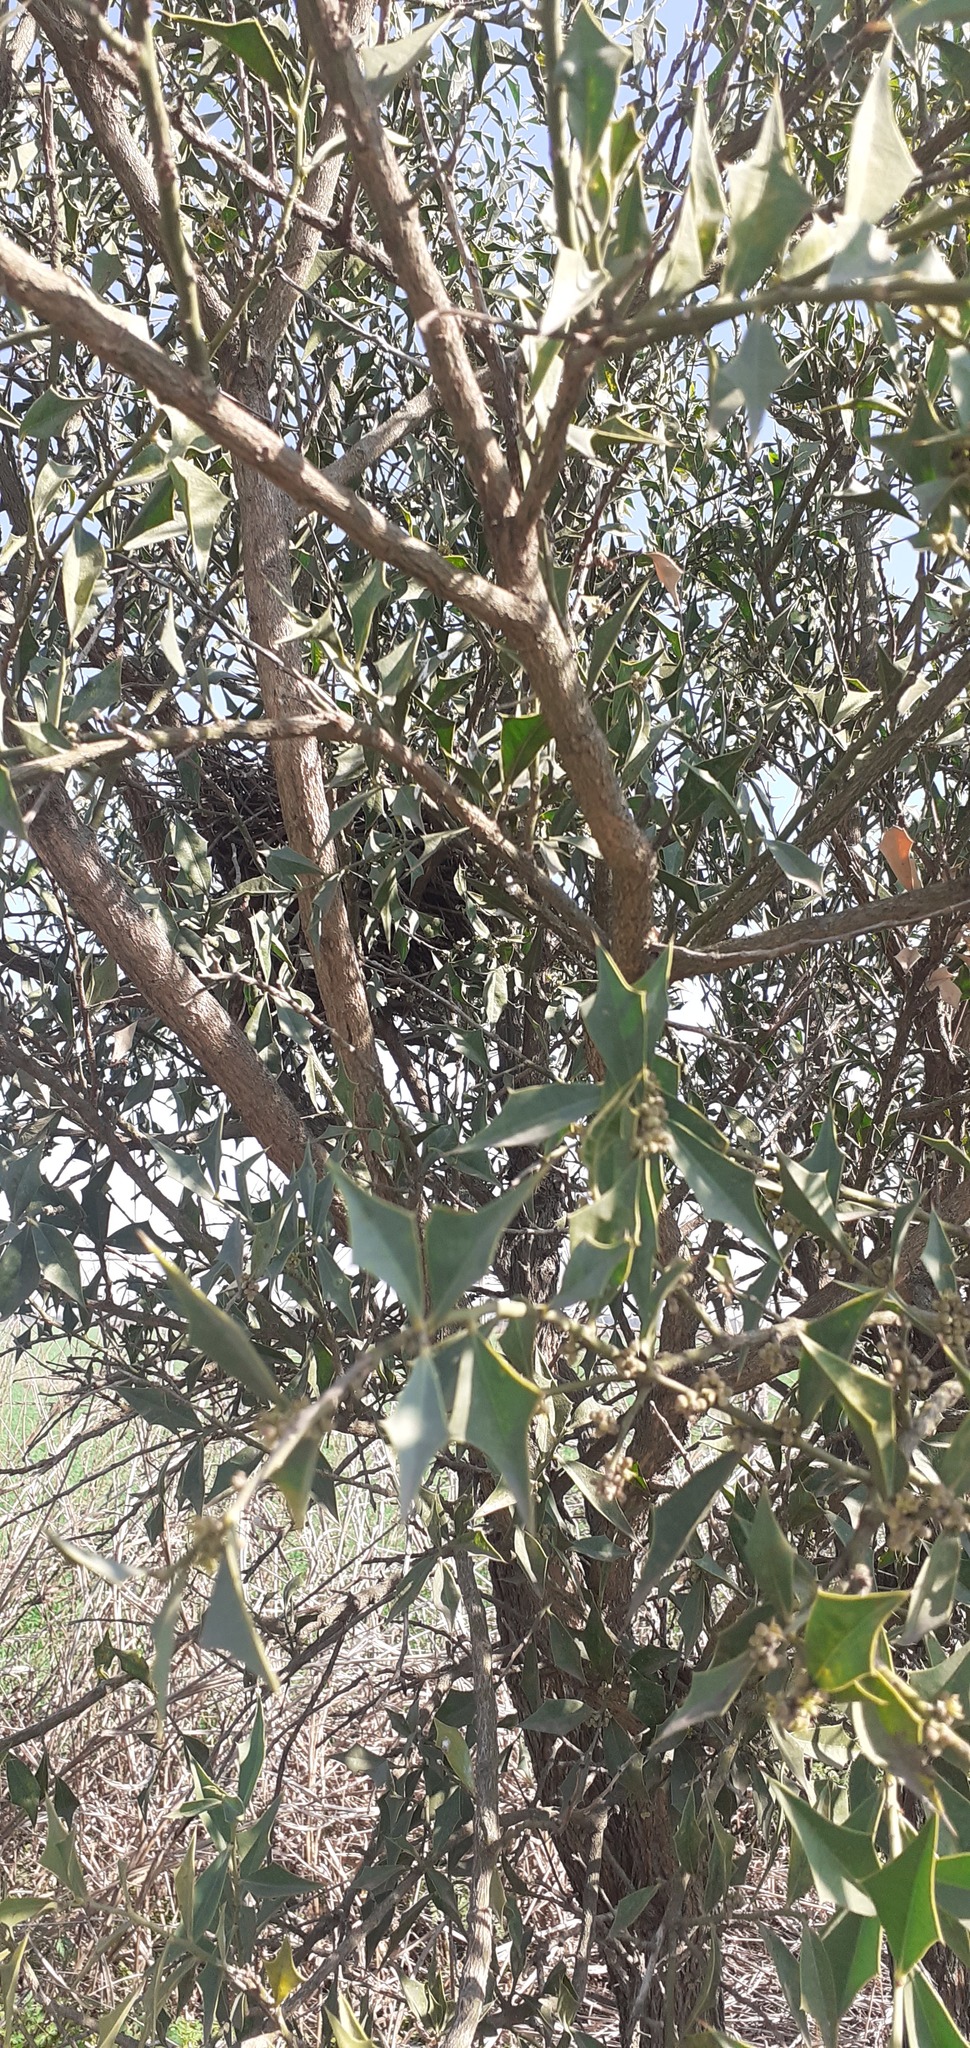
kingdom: Plantae
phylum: Tracheophyta
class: Magnoliopsida
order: Santalales
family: Cervantesiaceae
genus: Jodina
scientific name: Jodina rhombifolia
